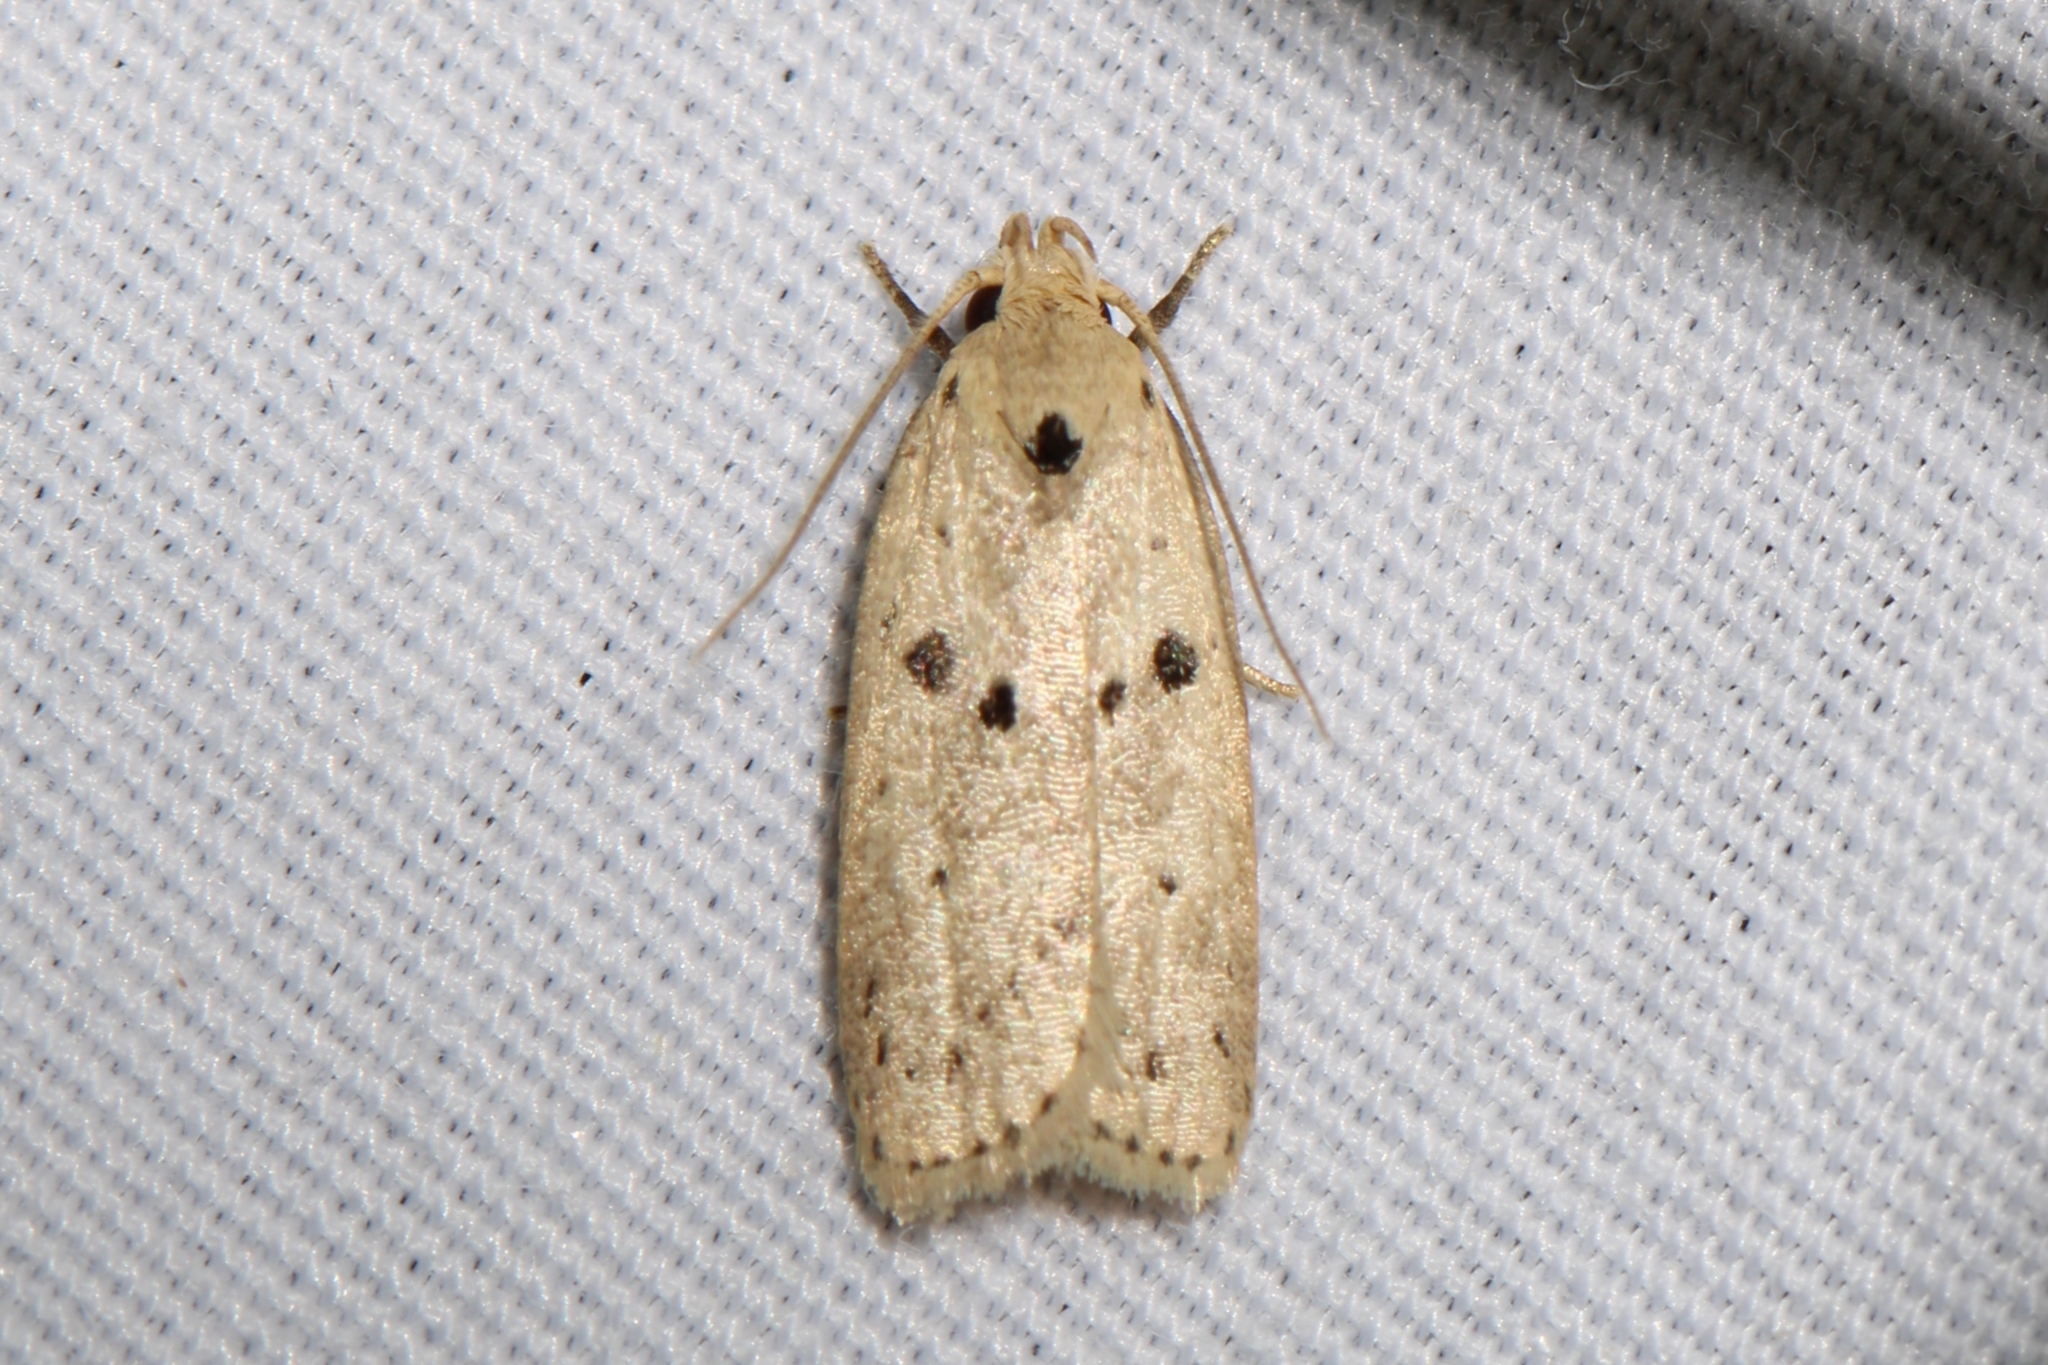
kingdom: Animalia
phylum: Arthropoda
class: Insecta
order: Lepidoptera
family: Peleopodidae
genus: Scythropiodes
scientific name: Scythropiodes issikii
